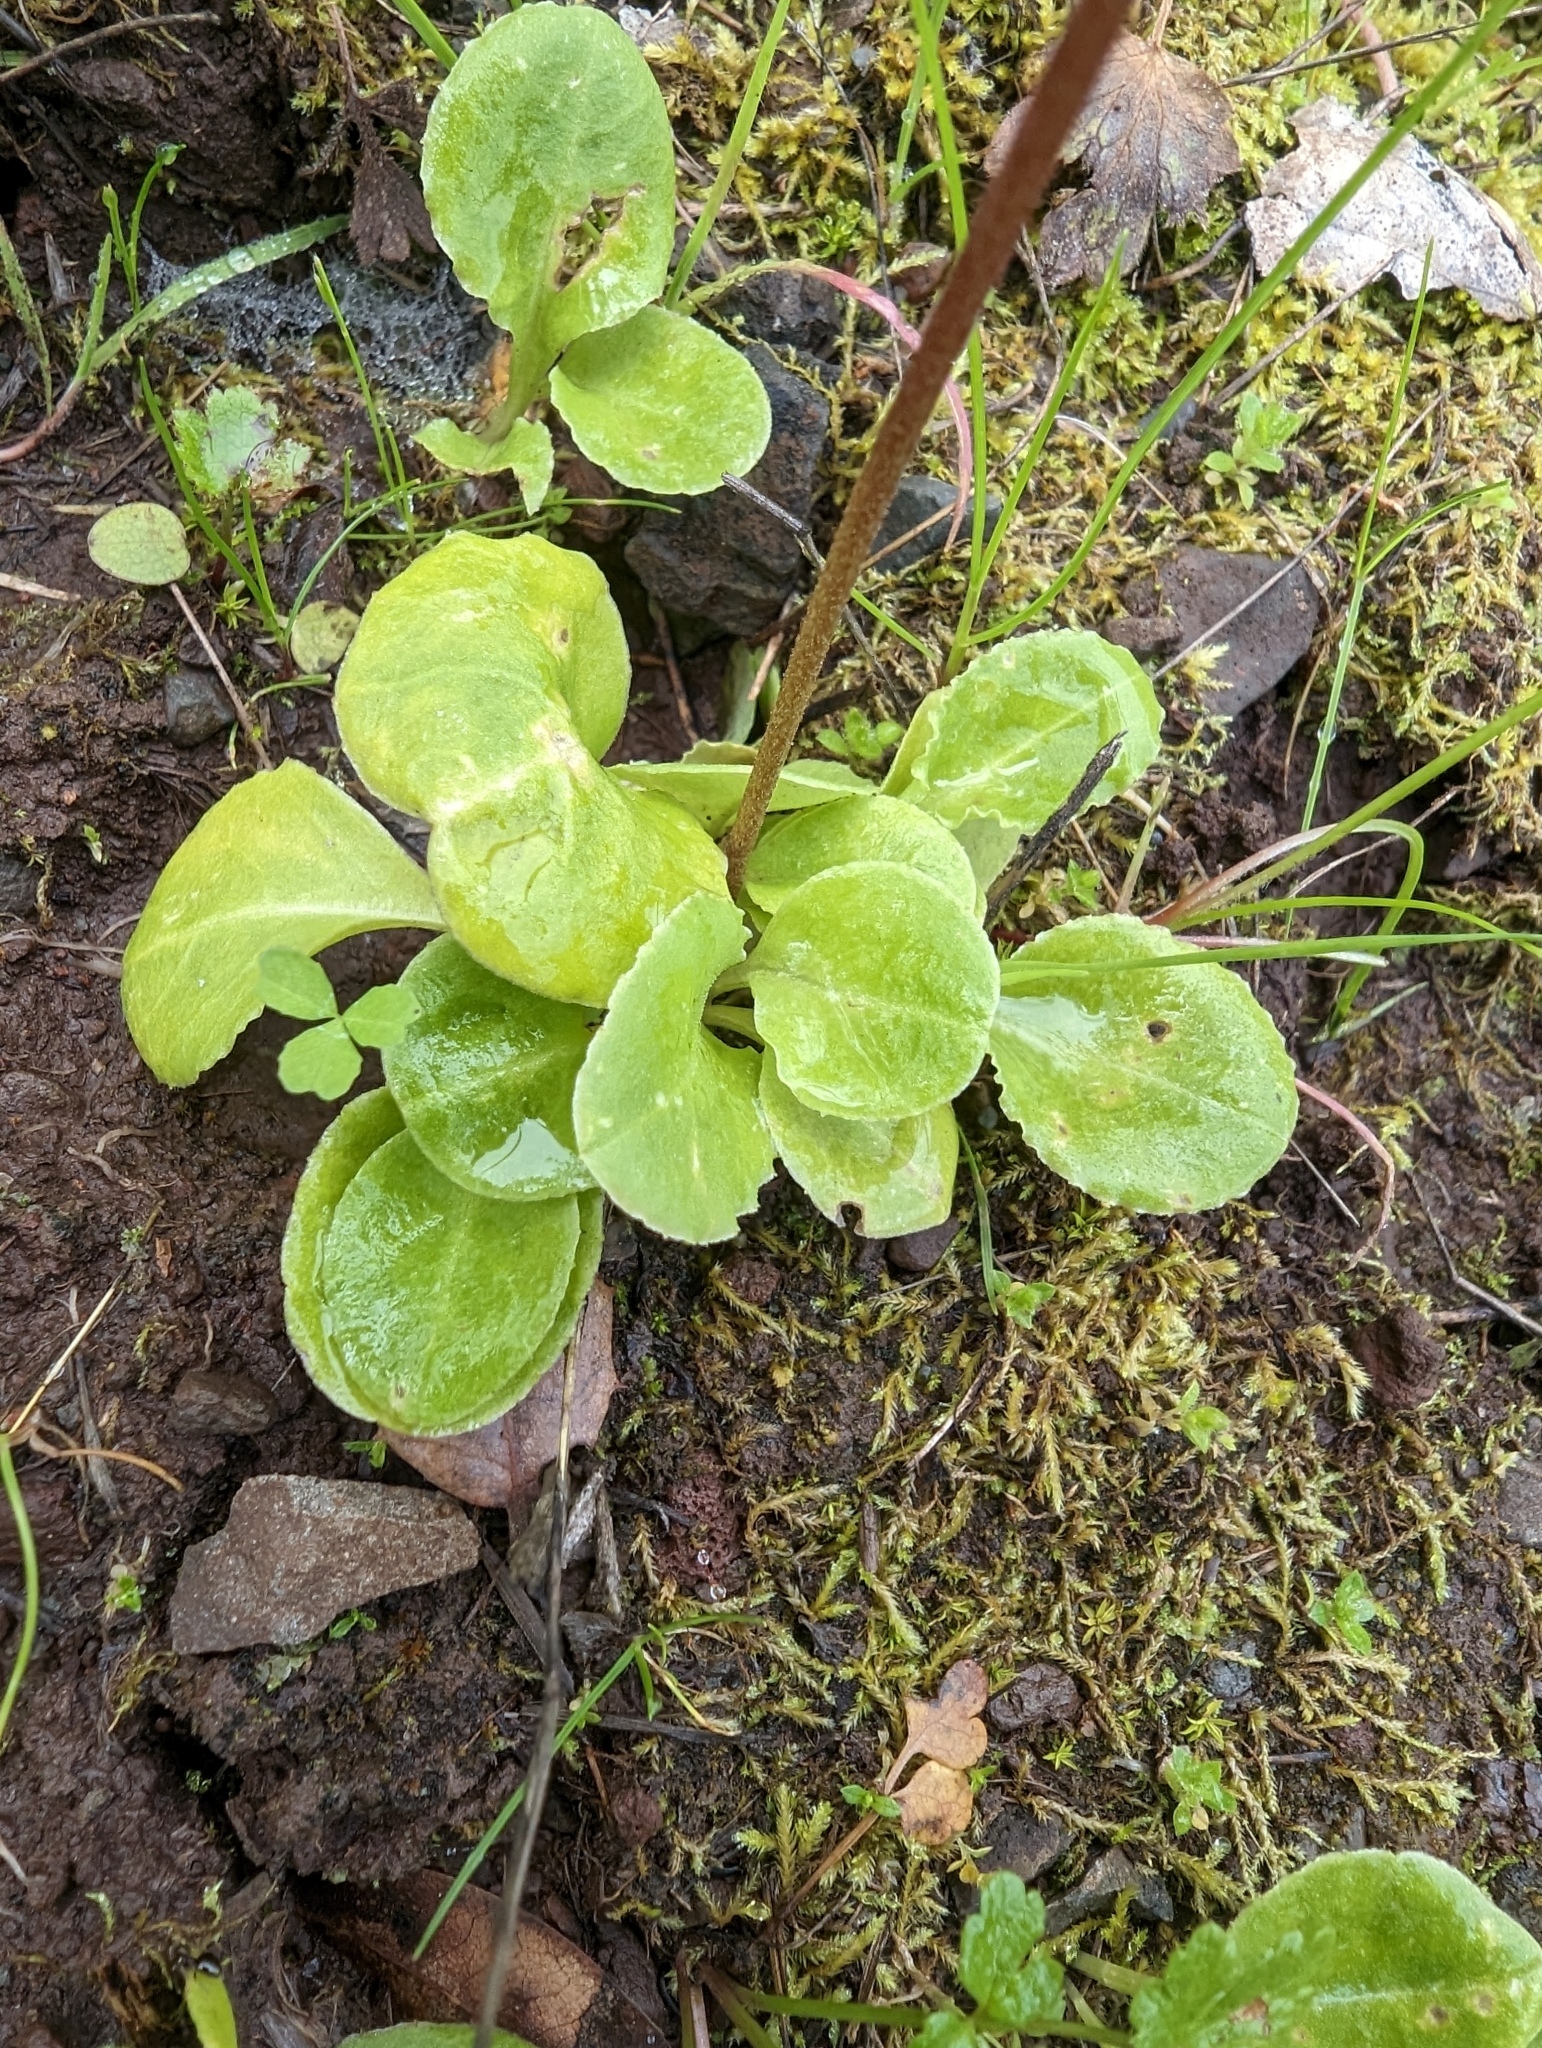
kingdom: Plantae
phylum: Tracheophyta
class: Magnoliopsida
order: Ericales
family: Primulaceae
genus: Dodecatheon
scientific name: Dodecatheon hendersonii
